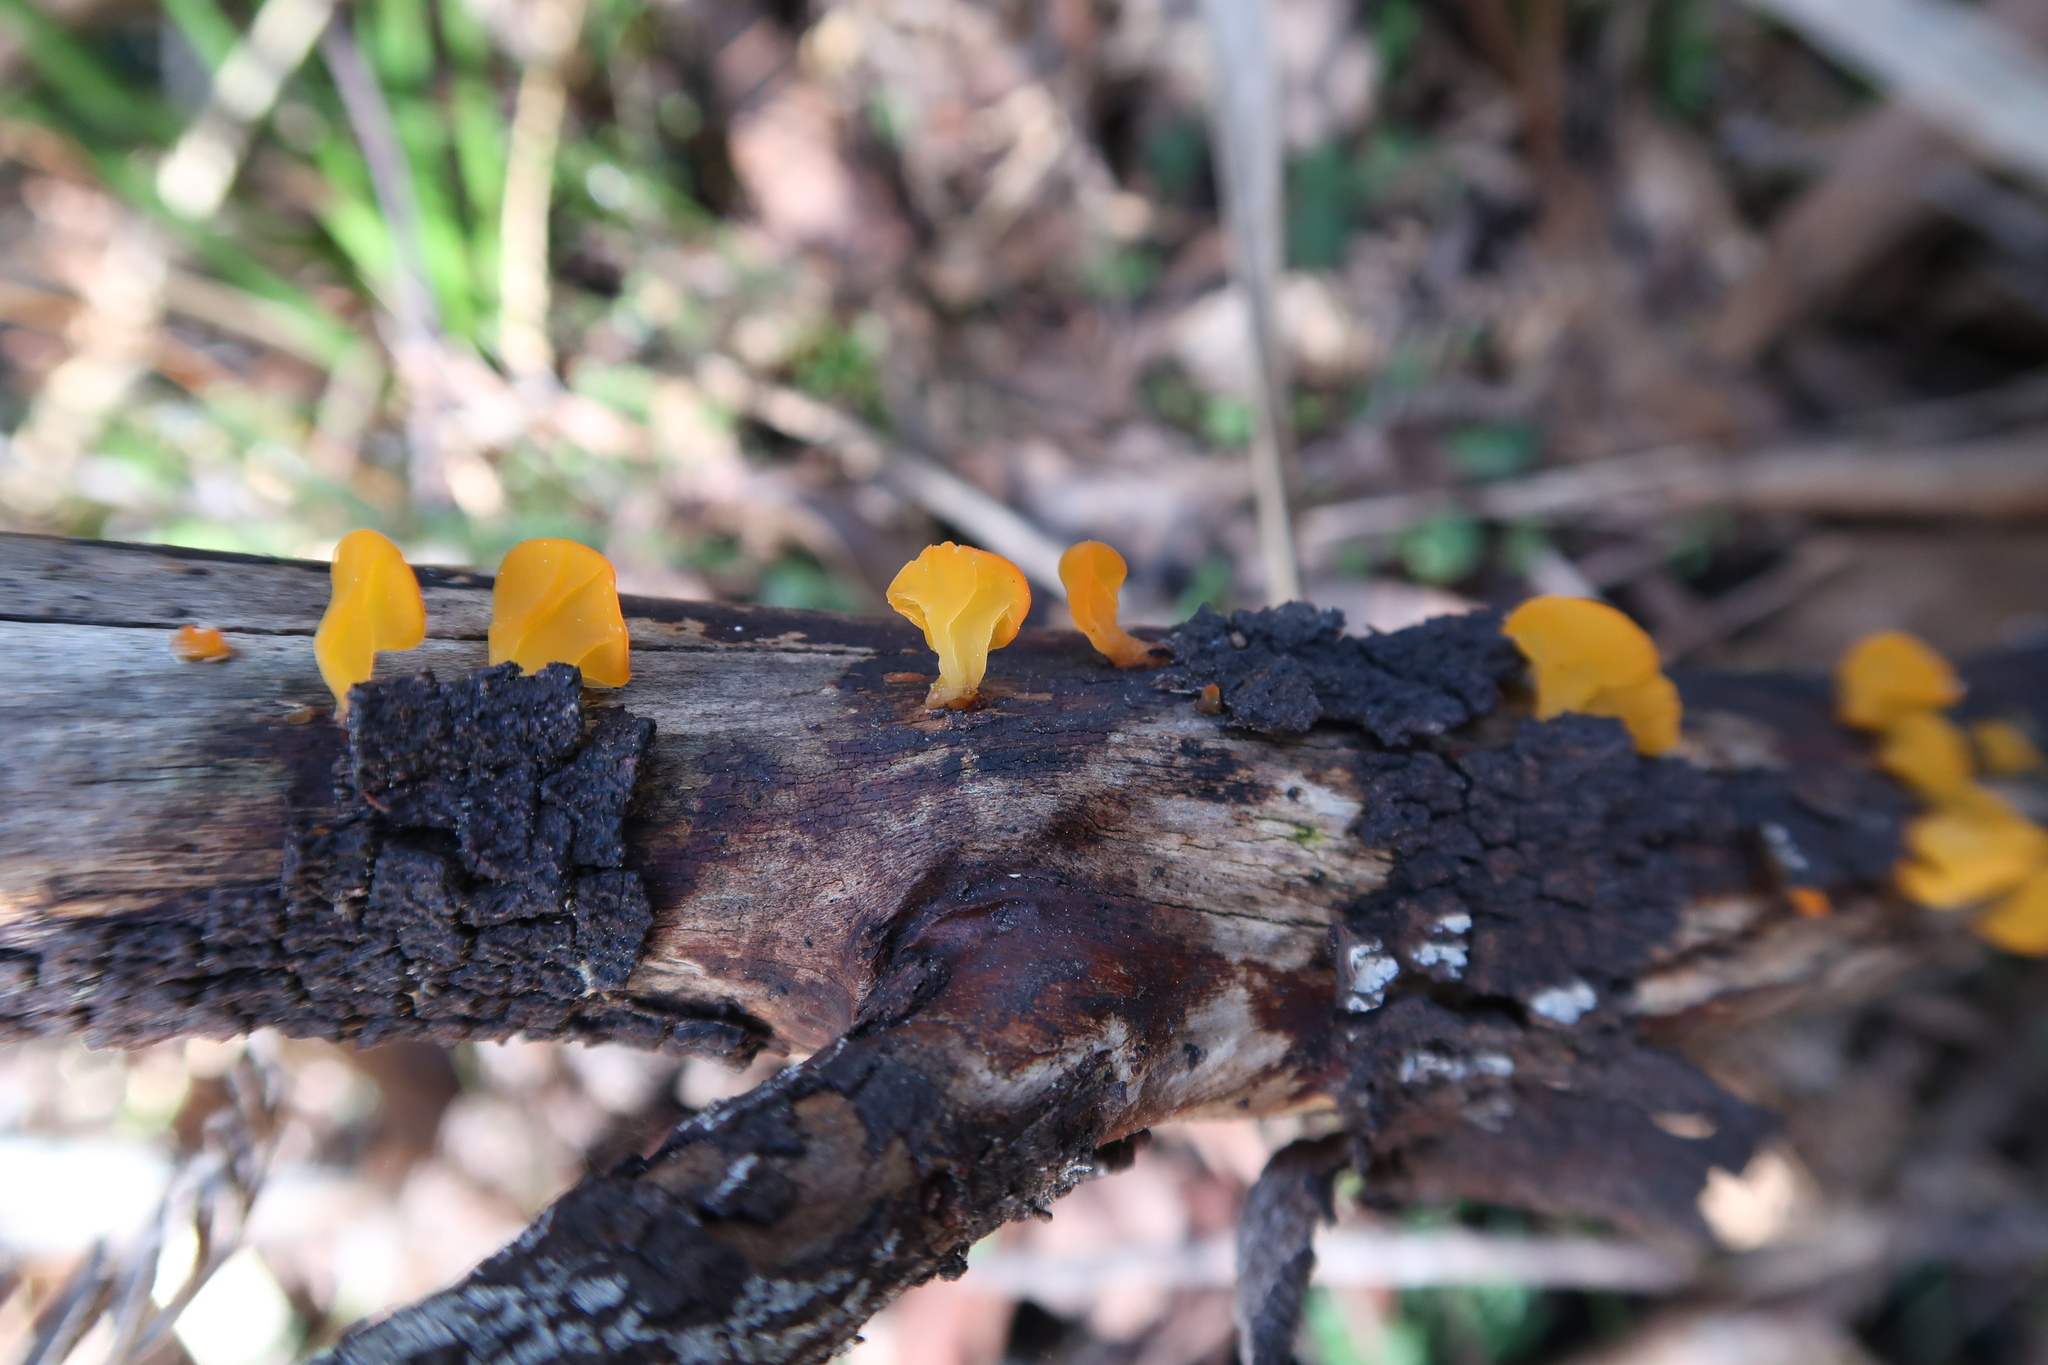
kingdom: Fungi
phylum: Basidiomycota
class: Dacrymycetes
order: Dacrymycetales
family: Dacrymycetaceae
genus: Heterotextus
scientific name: Heterotextus peziziformis
